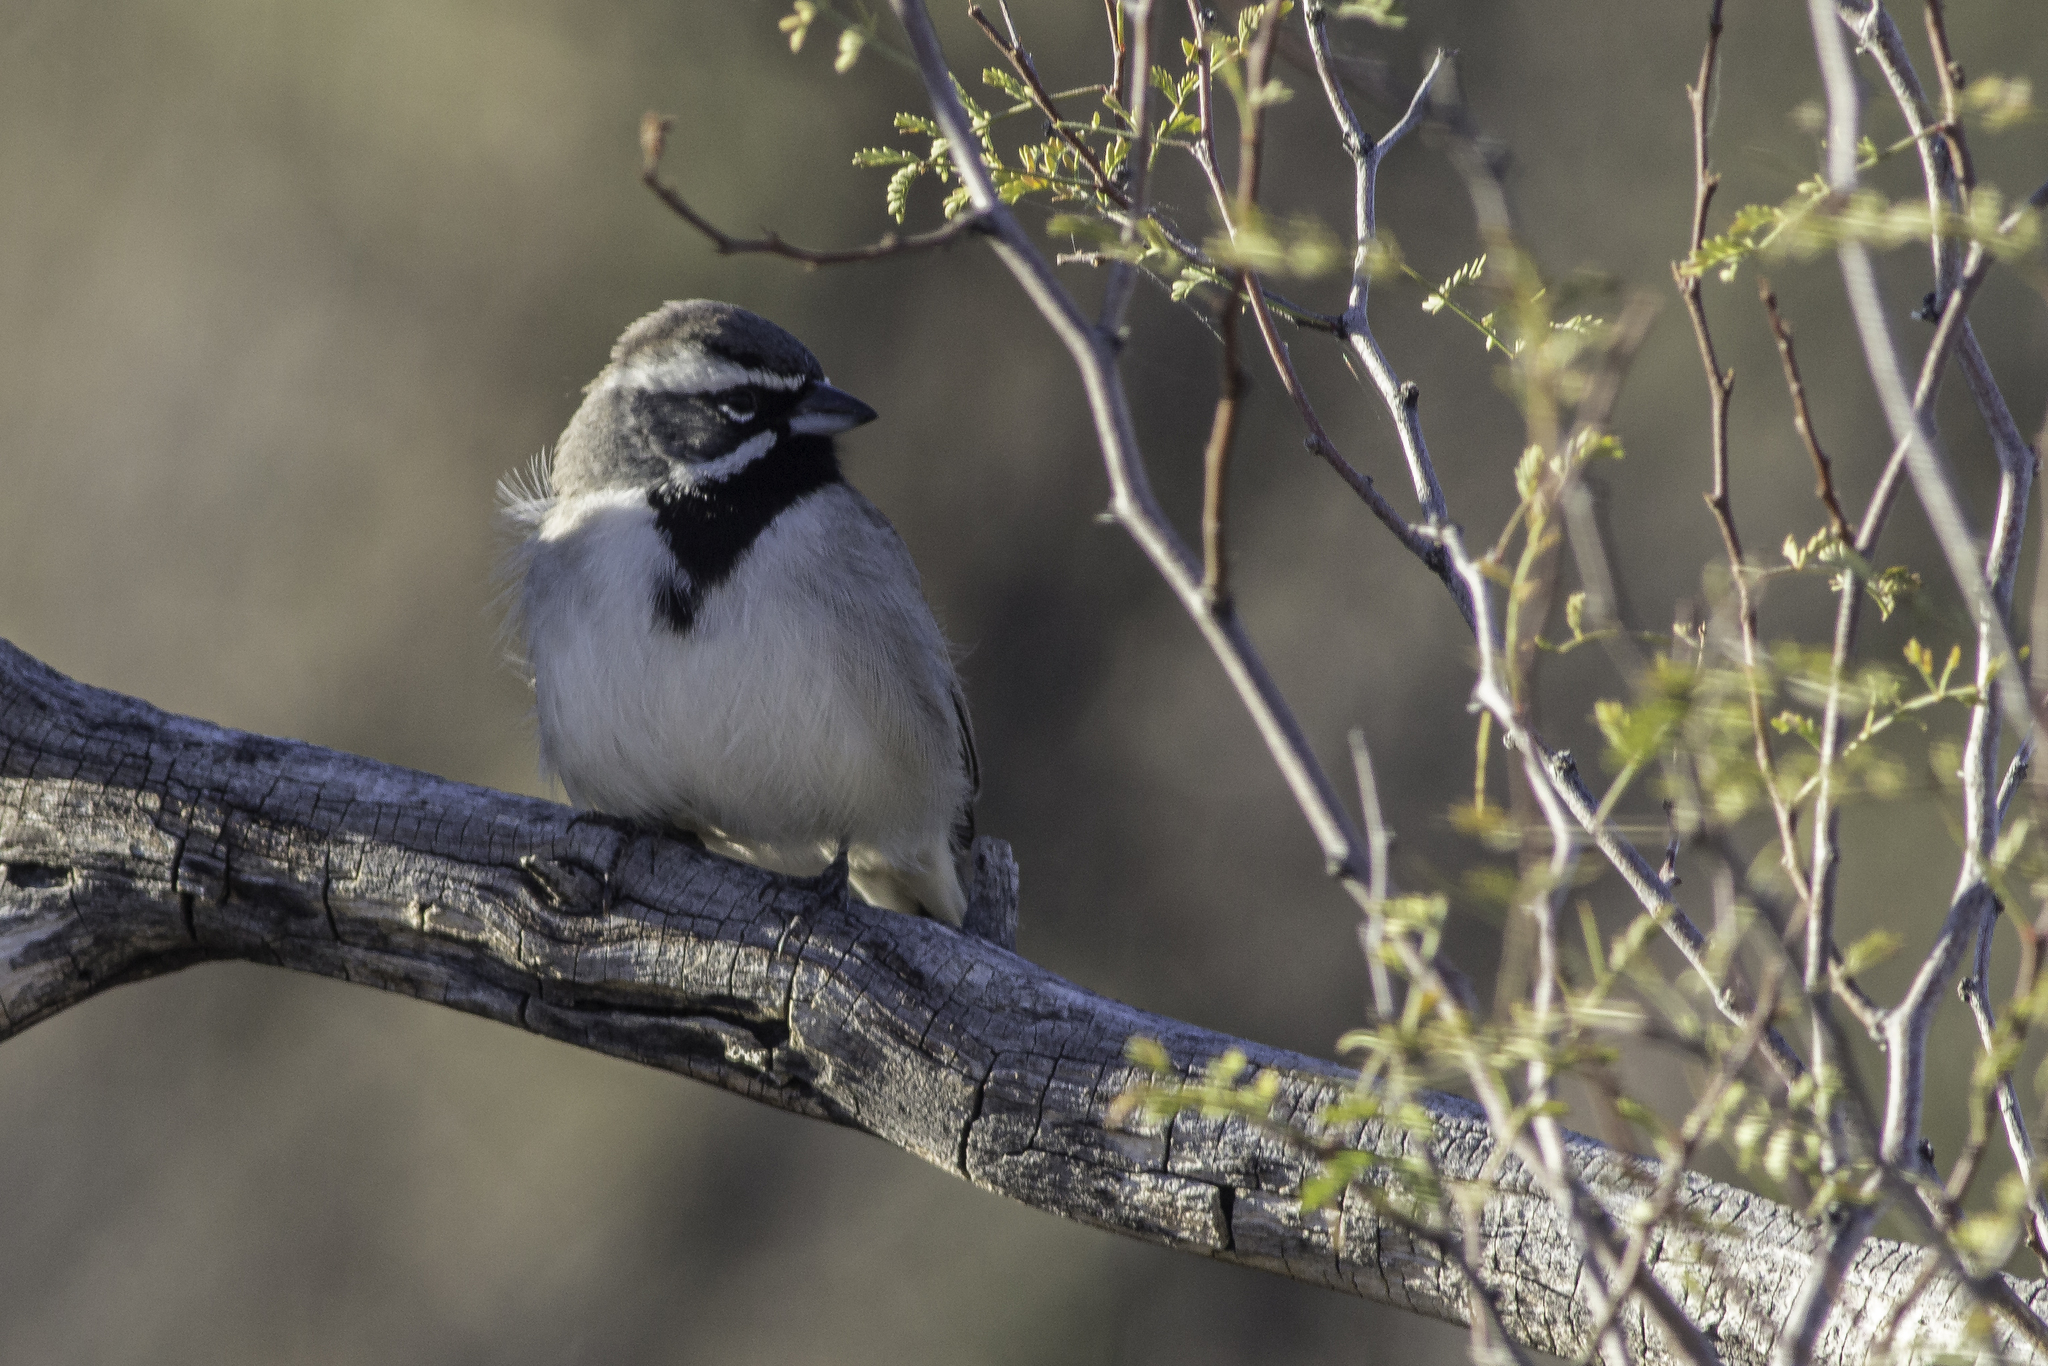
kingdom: Animalia
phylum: Chordata
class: Aves
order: Passeriformes
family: Passerellidae
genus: Amphispiza
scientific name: Amphispiza bilineata
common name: Black-throated sparrow
